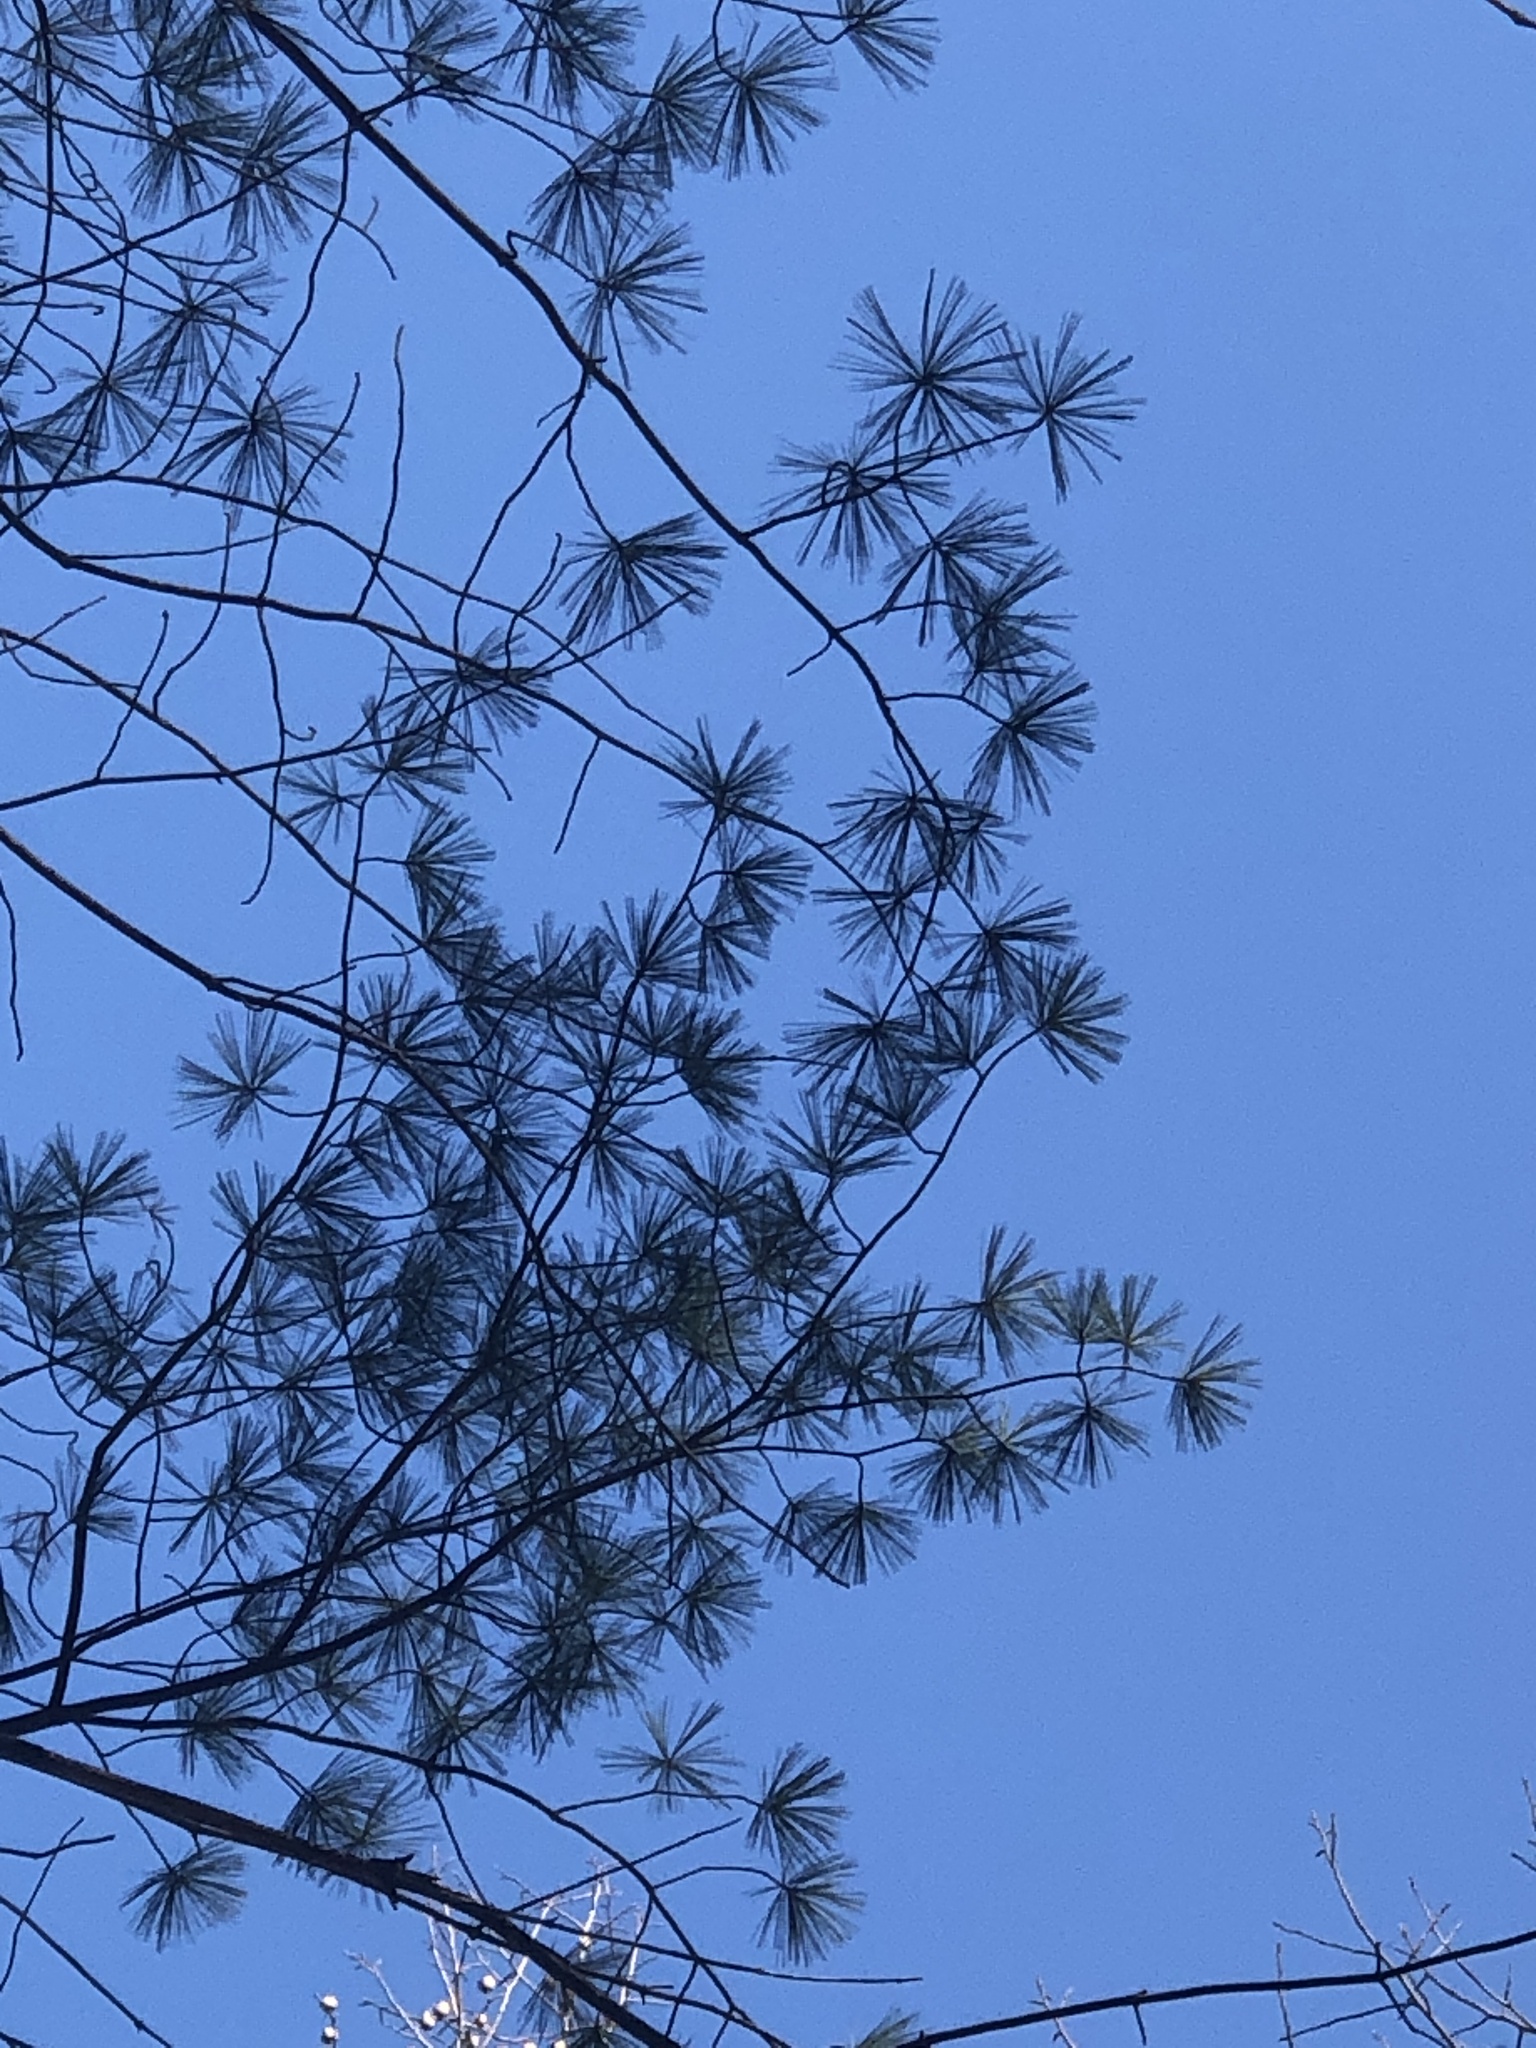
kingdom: Plantae
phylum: Tracheophyta
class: Pinopsida
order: Pinales
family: Pinaceae
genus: Pinus
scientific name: Pinus strobus
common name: Weymouth pine
